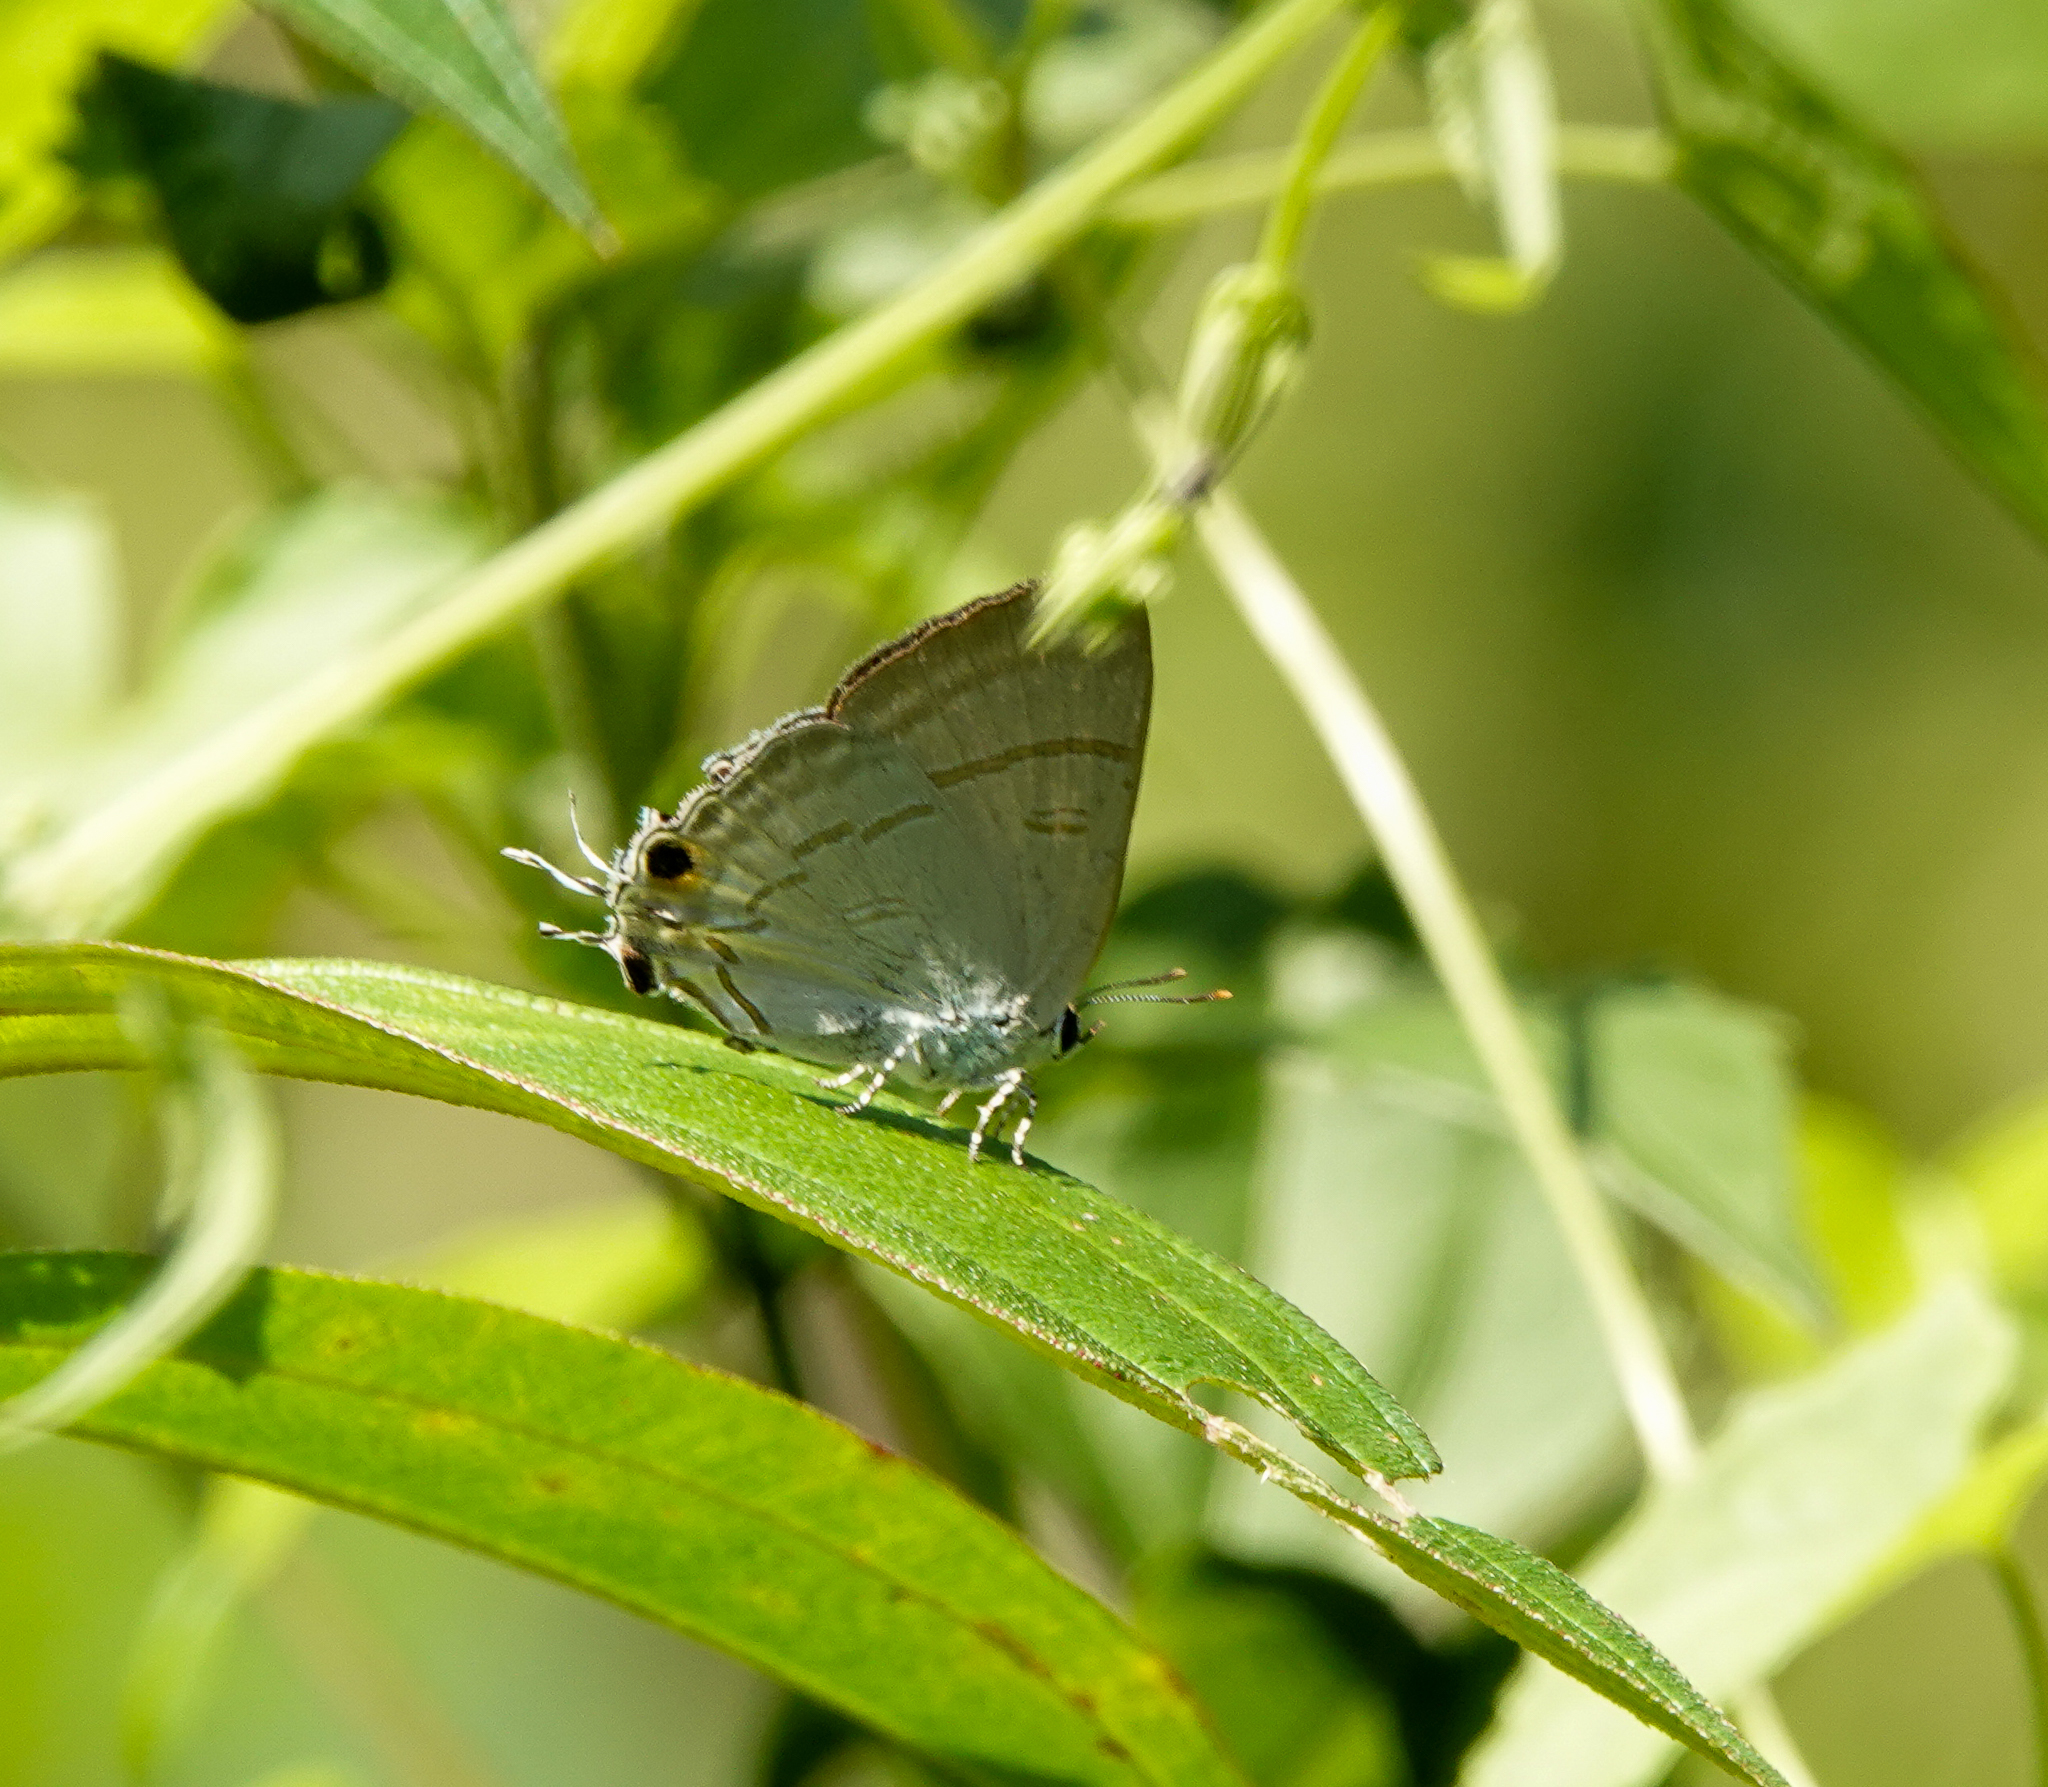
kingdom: Animalia
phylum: Arthropoda
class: Insecta
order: Lepidoptera
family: Lycaenidae
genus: Hypolycaena
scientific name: Hypolycaena erylus
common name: Common tit
